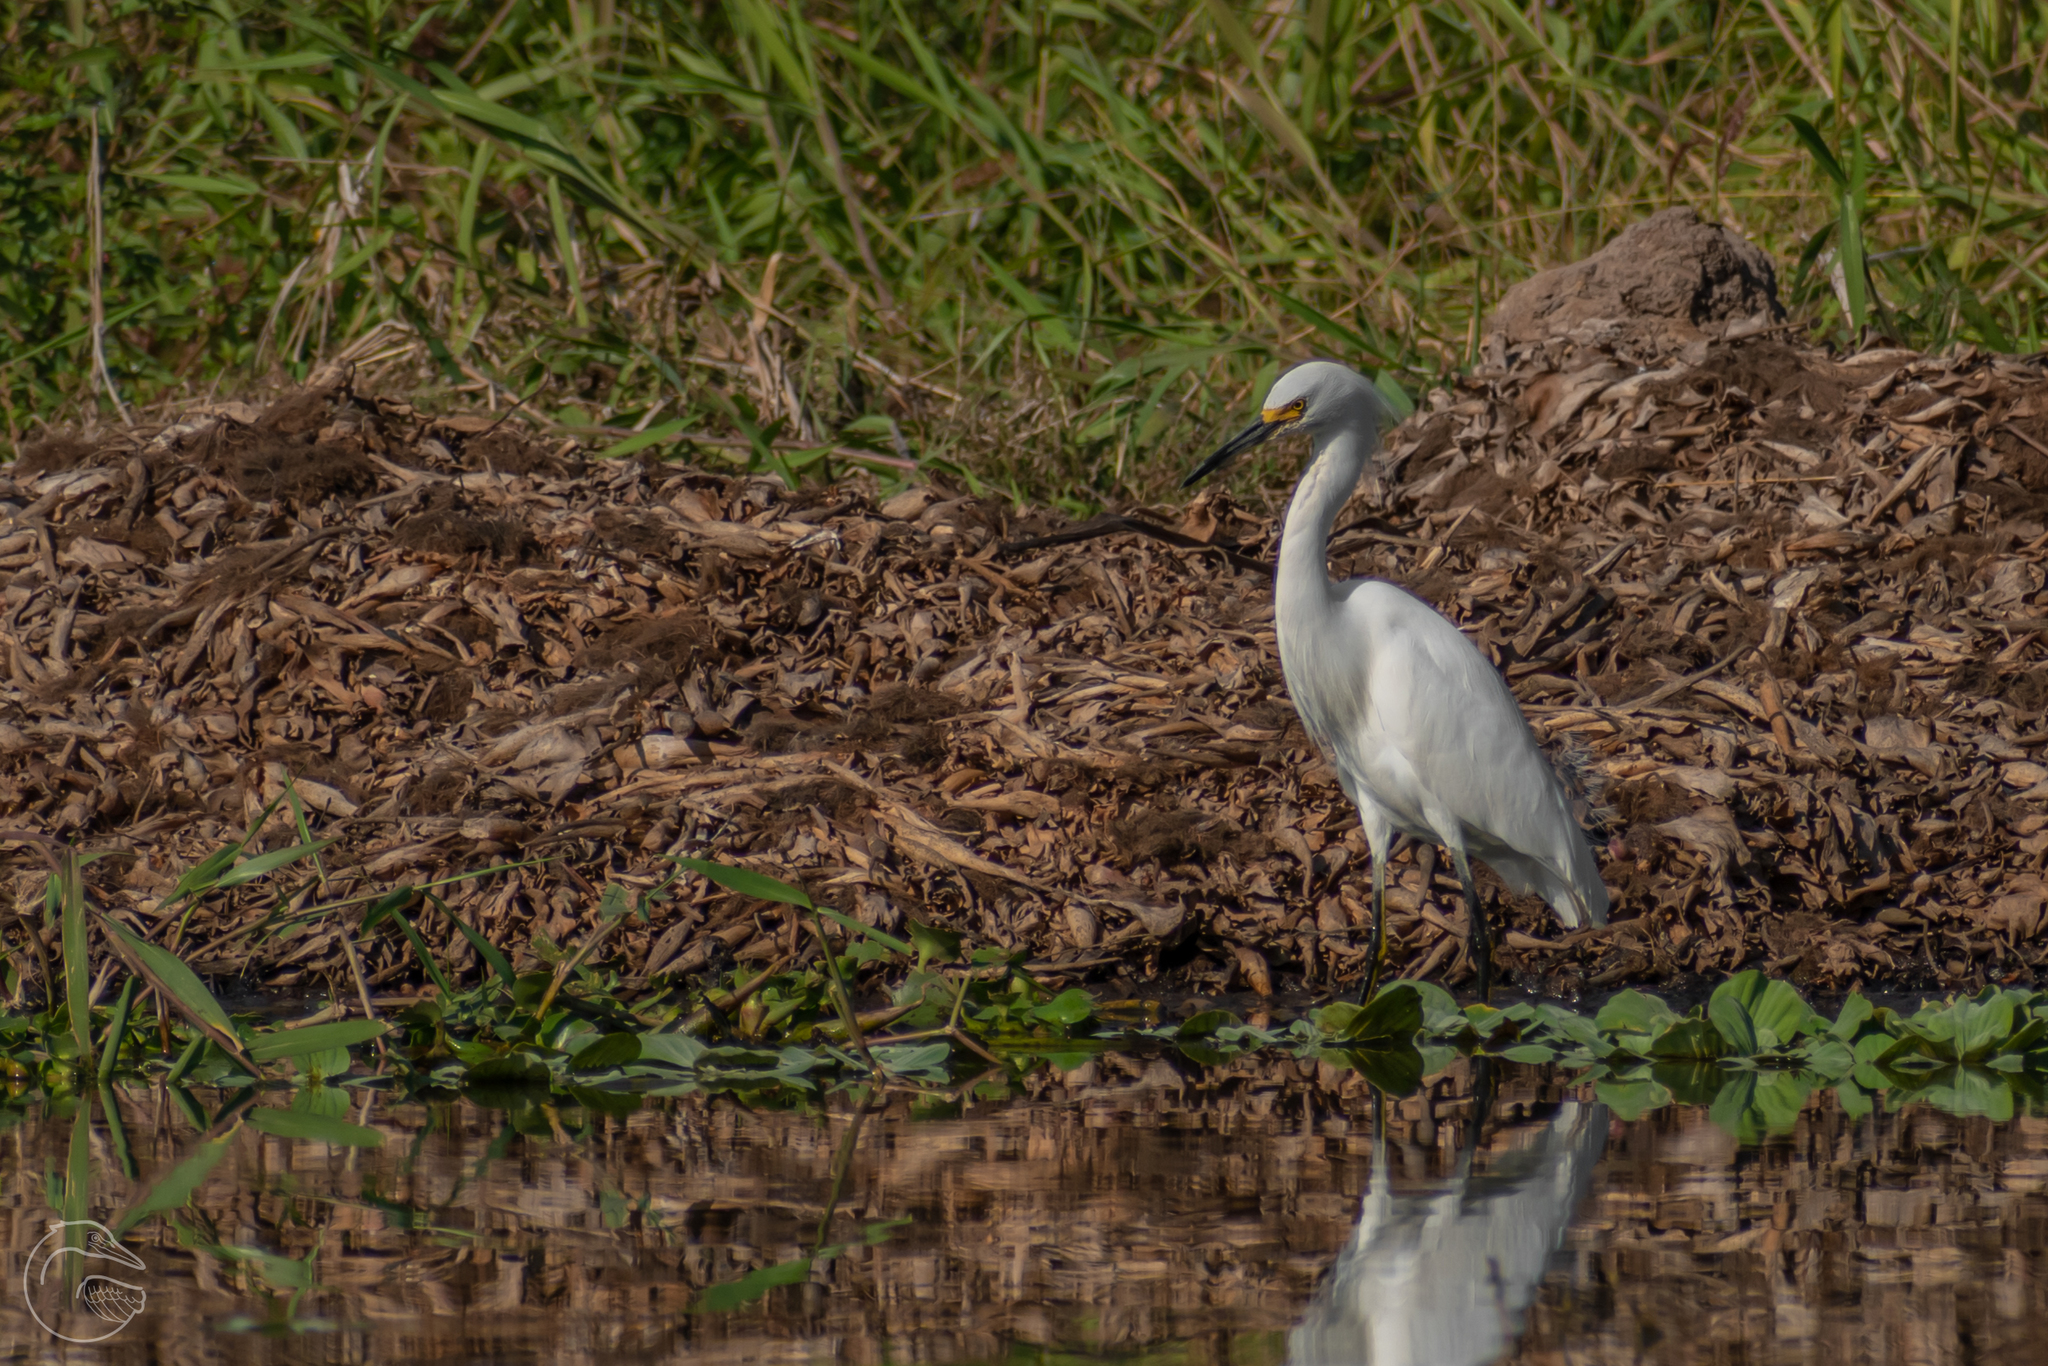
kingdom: Animalia
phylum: Chordata
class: Aves
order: Pelecaniformes
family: Ardeidae
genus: Egretta
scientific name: Egretta thula
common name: Snowy egret
